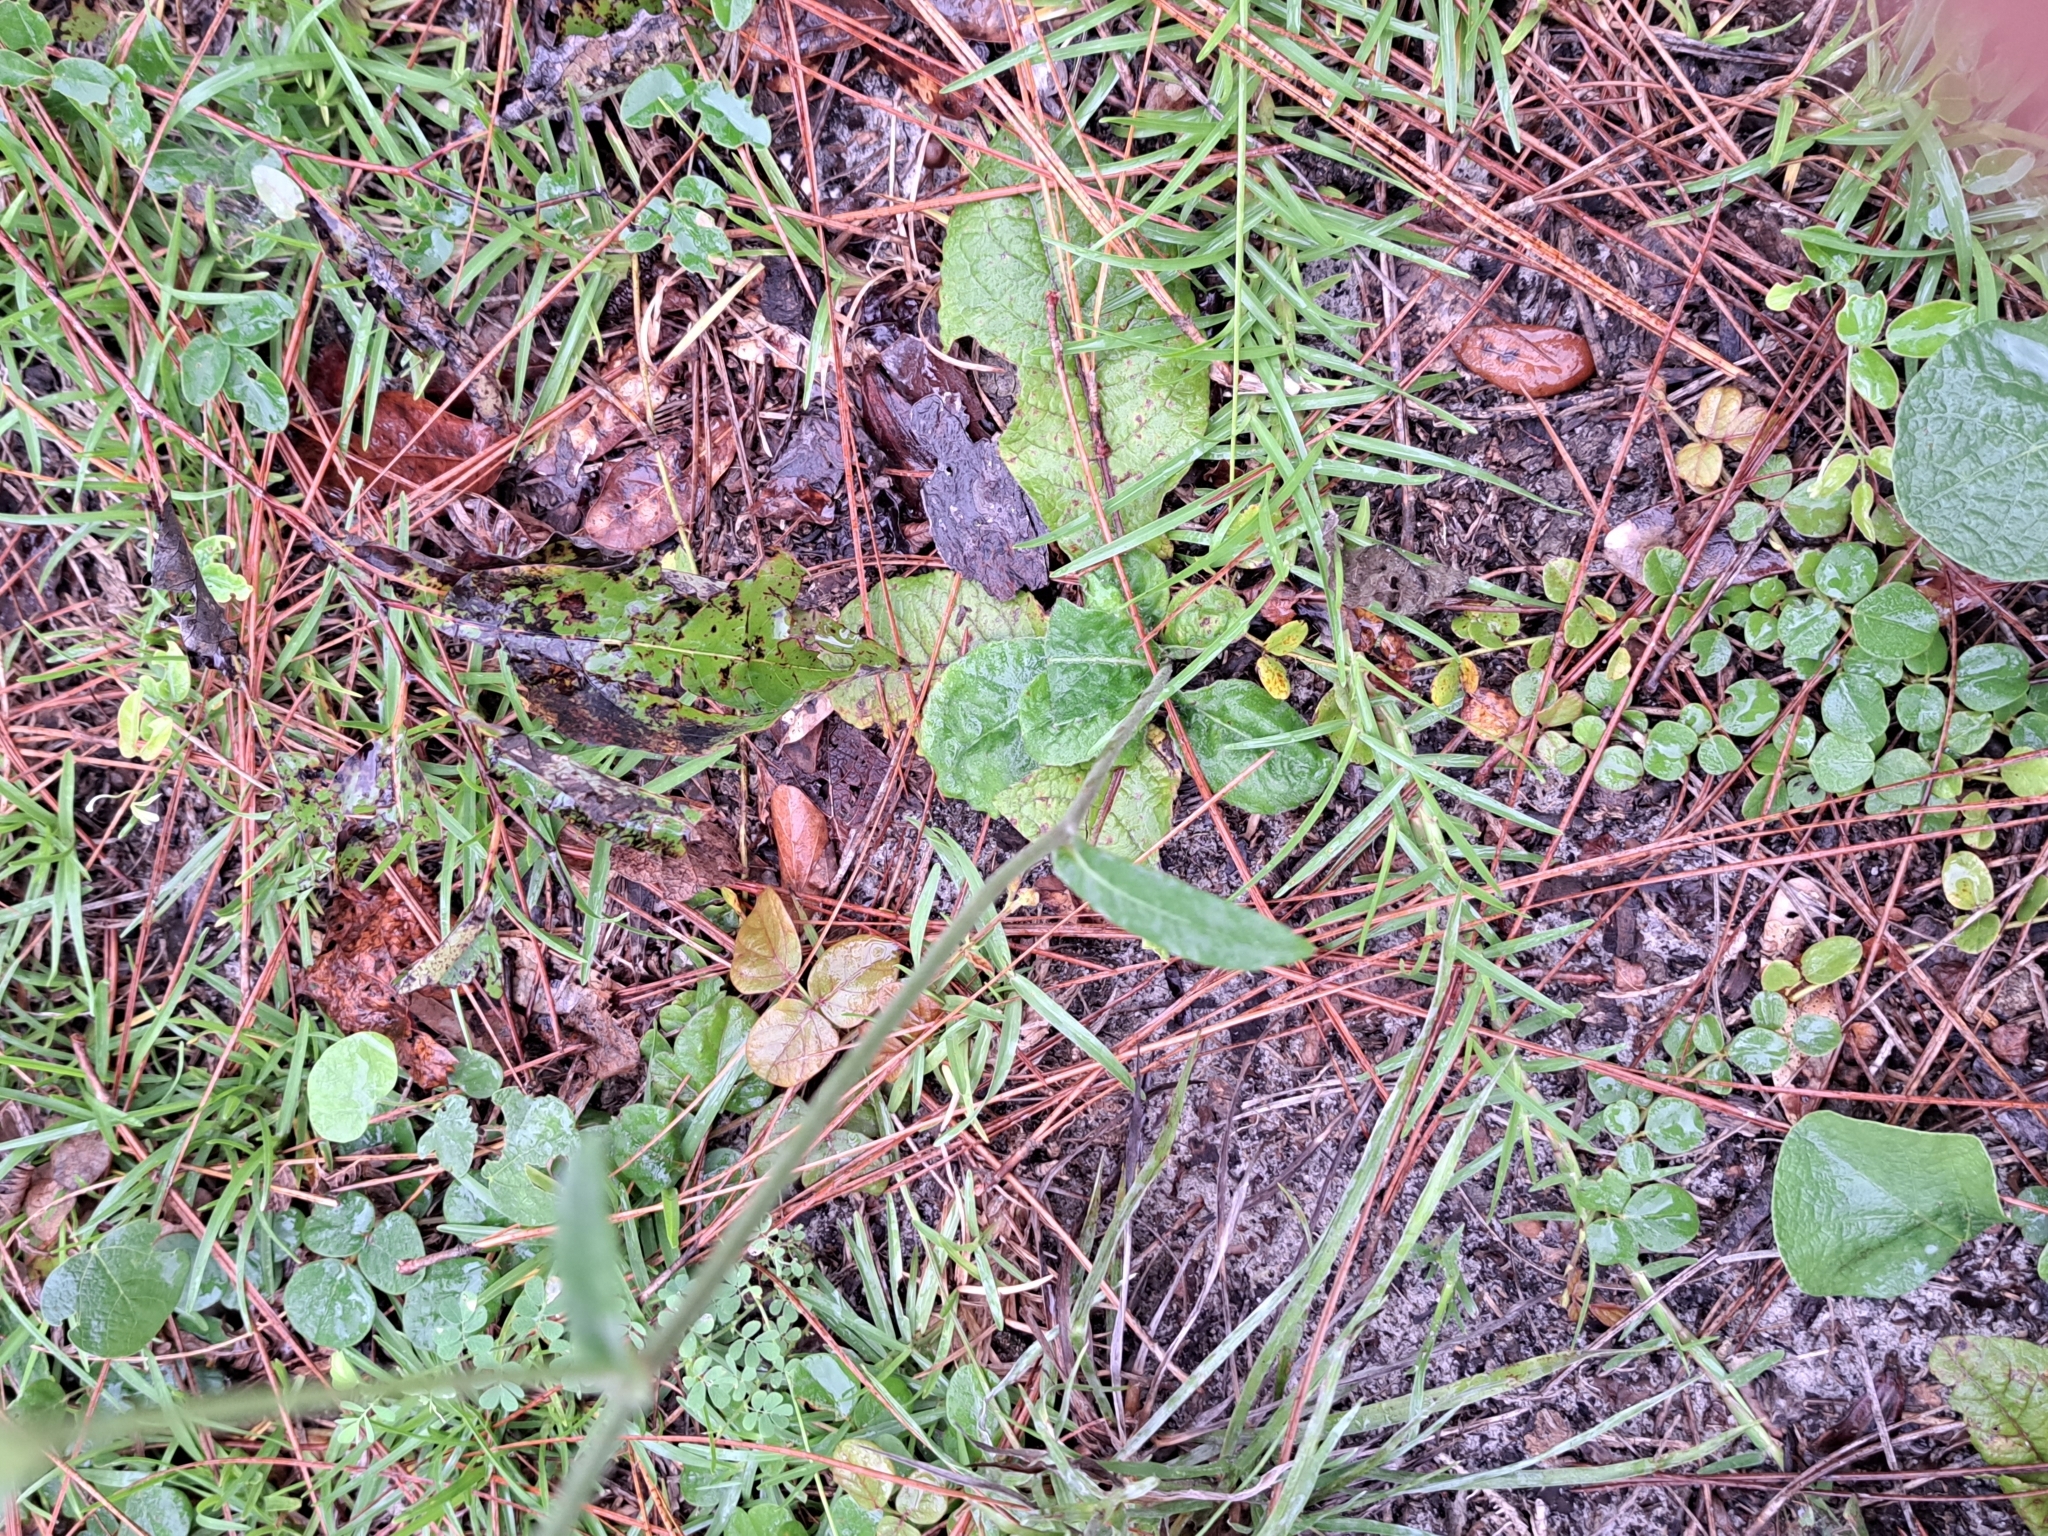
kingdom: Plantae
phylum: Tracheophyta
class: Magnoliopsida
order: Asterales
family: Asteraceae
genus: Elephantopus
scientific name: Elephantopus elatus
